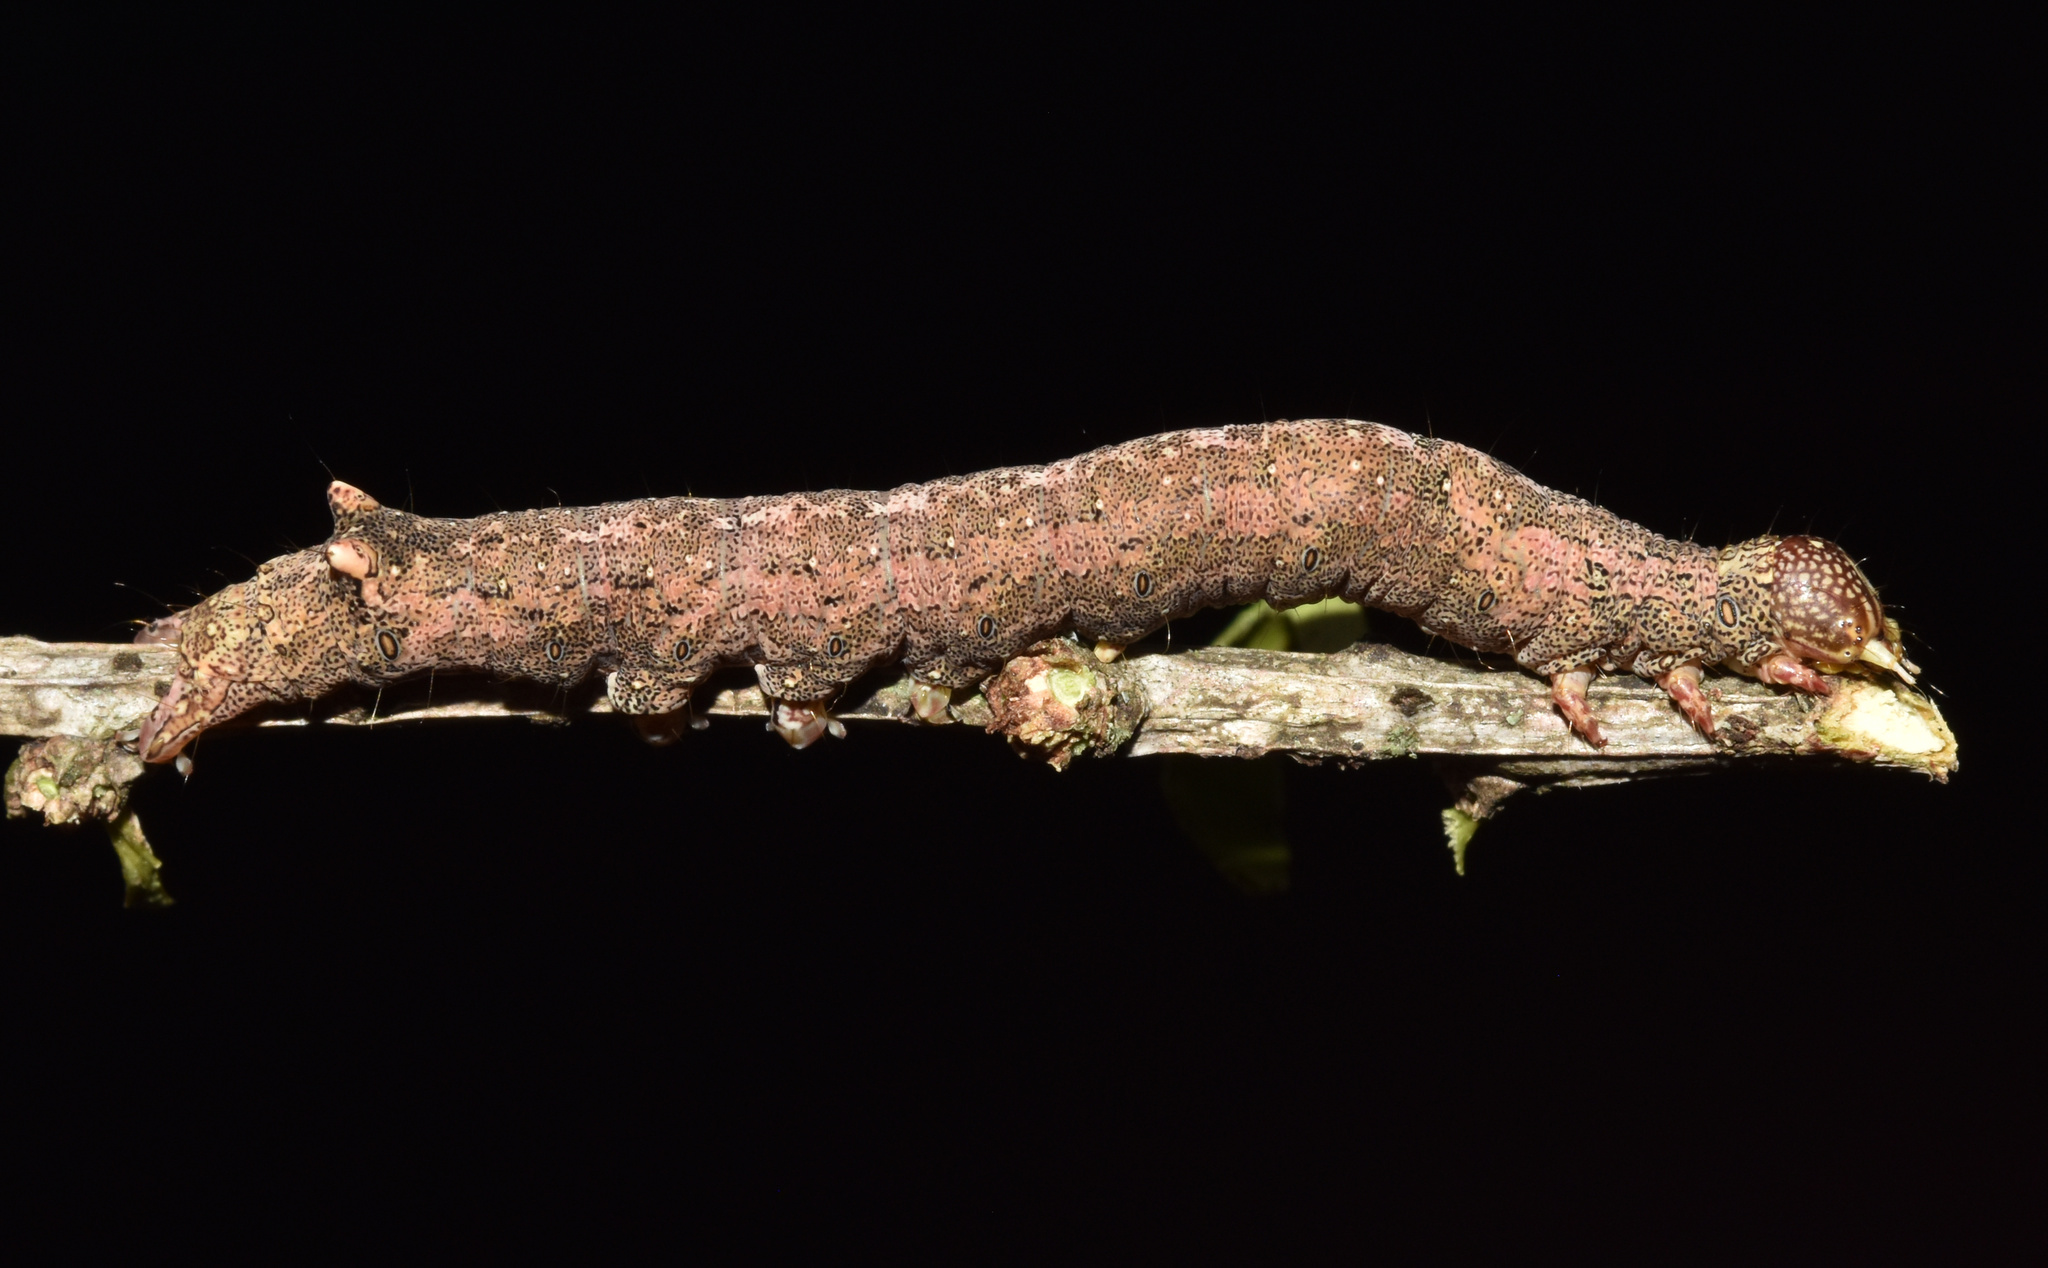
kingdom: Animalia
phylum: Arthropoda
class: Insecta
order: Lepidoptera
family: Erebidae
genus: Achaea
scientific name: Achaea lienardi
